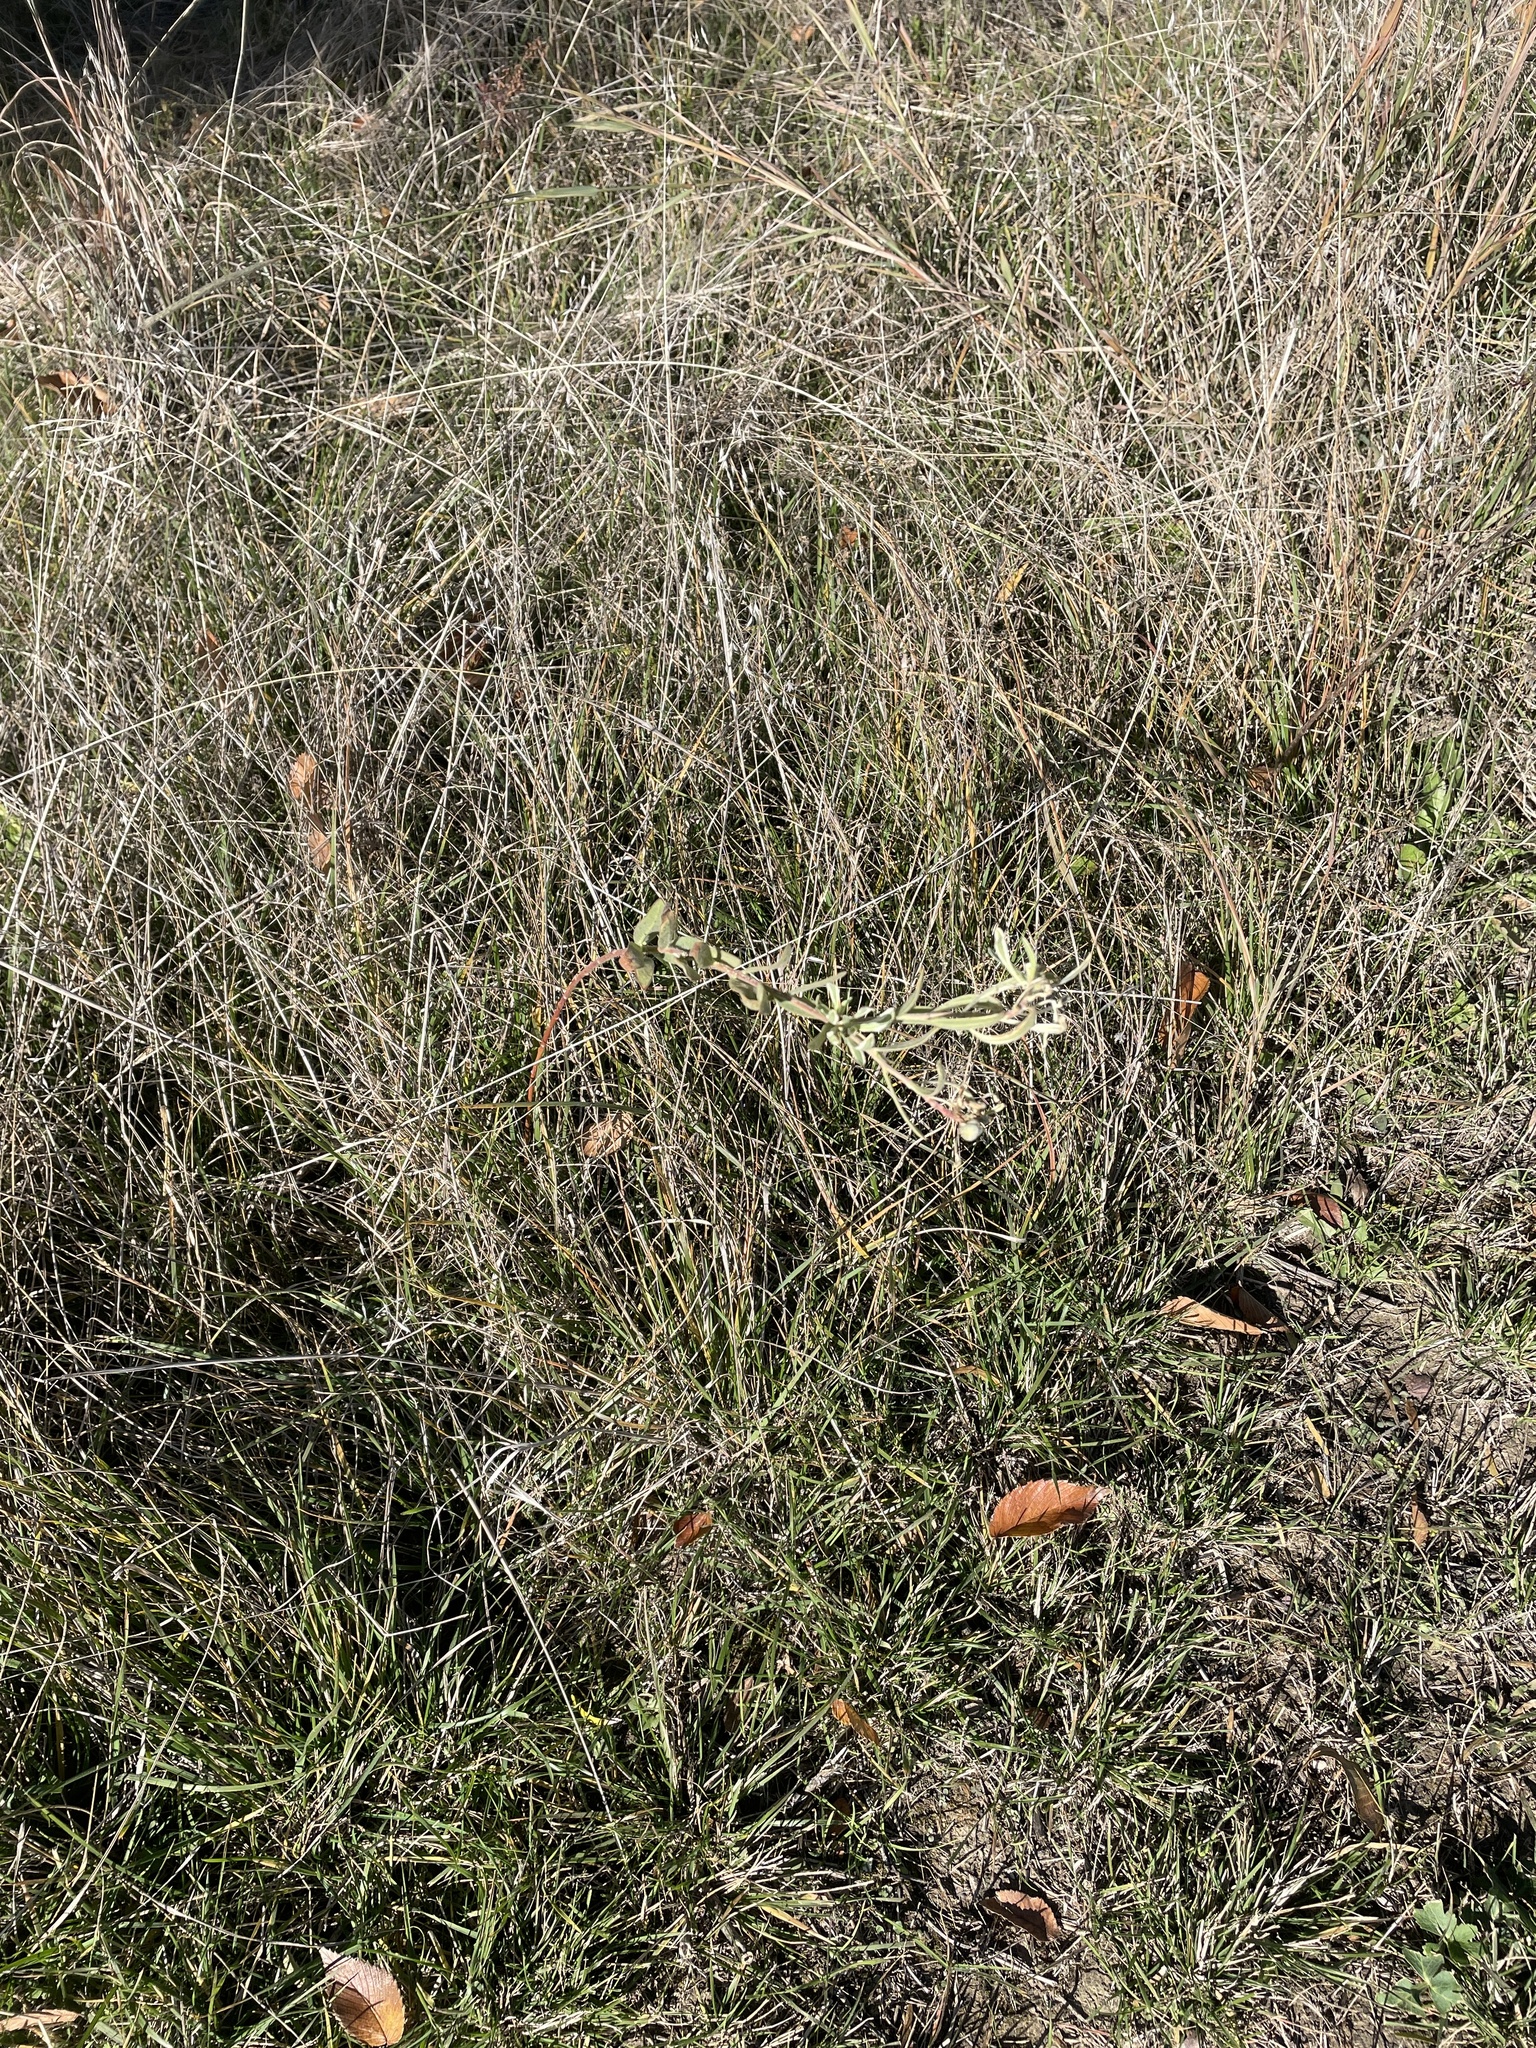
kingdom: Plantae
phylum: Tracheophyta
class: Magnoliopsida
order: Malpighiales
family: Euphorbiaceae
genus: Euphorbia
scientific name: Euphorbia bicolor
